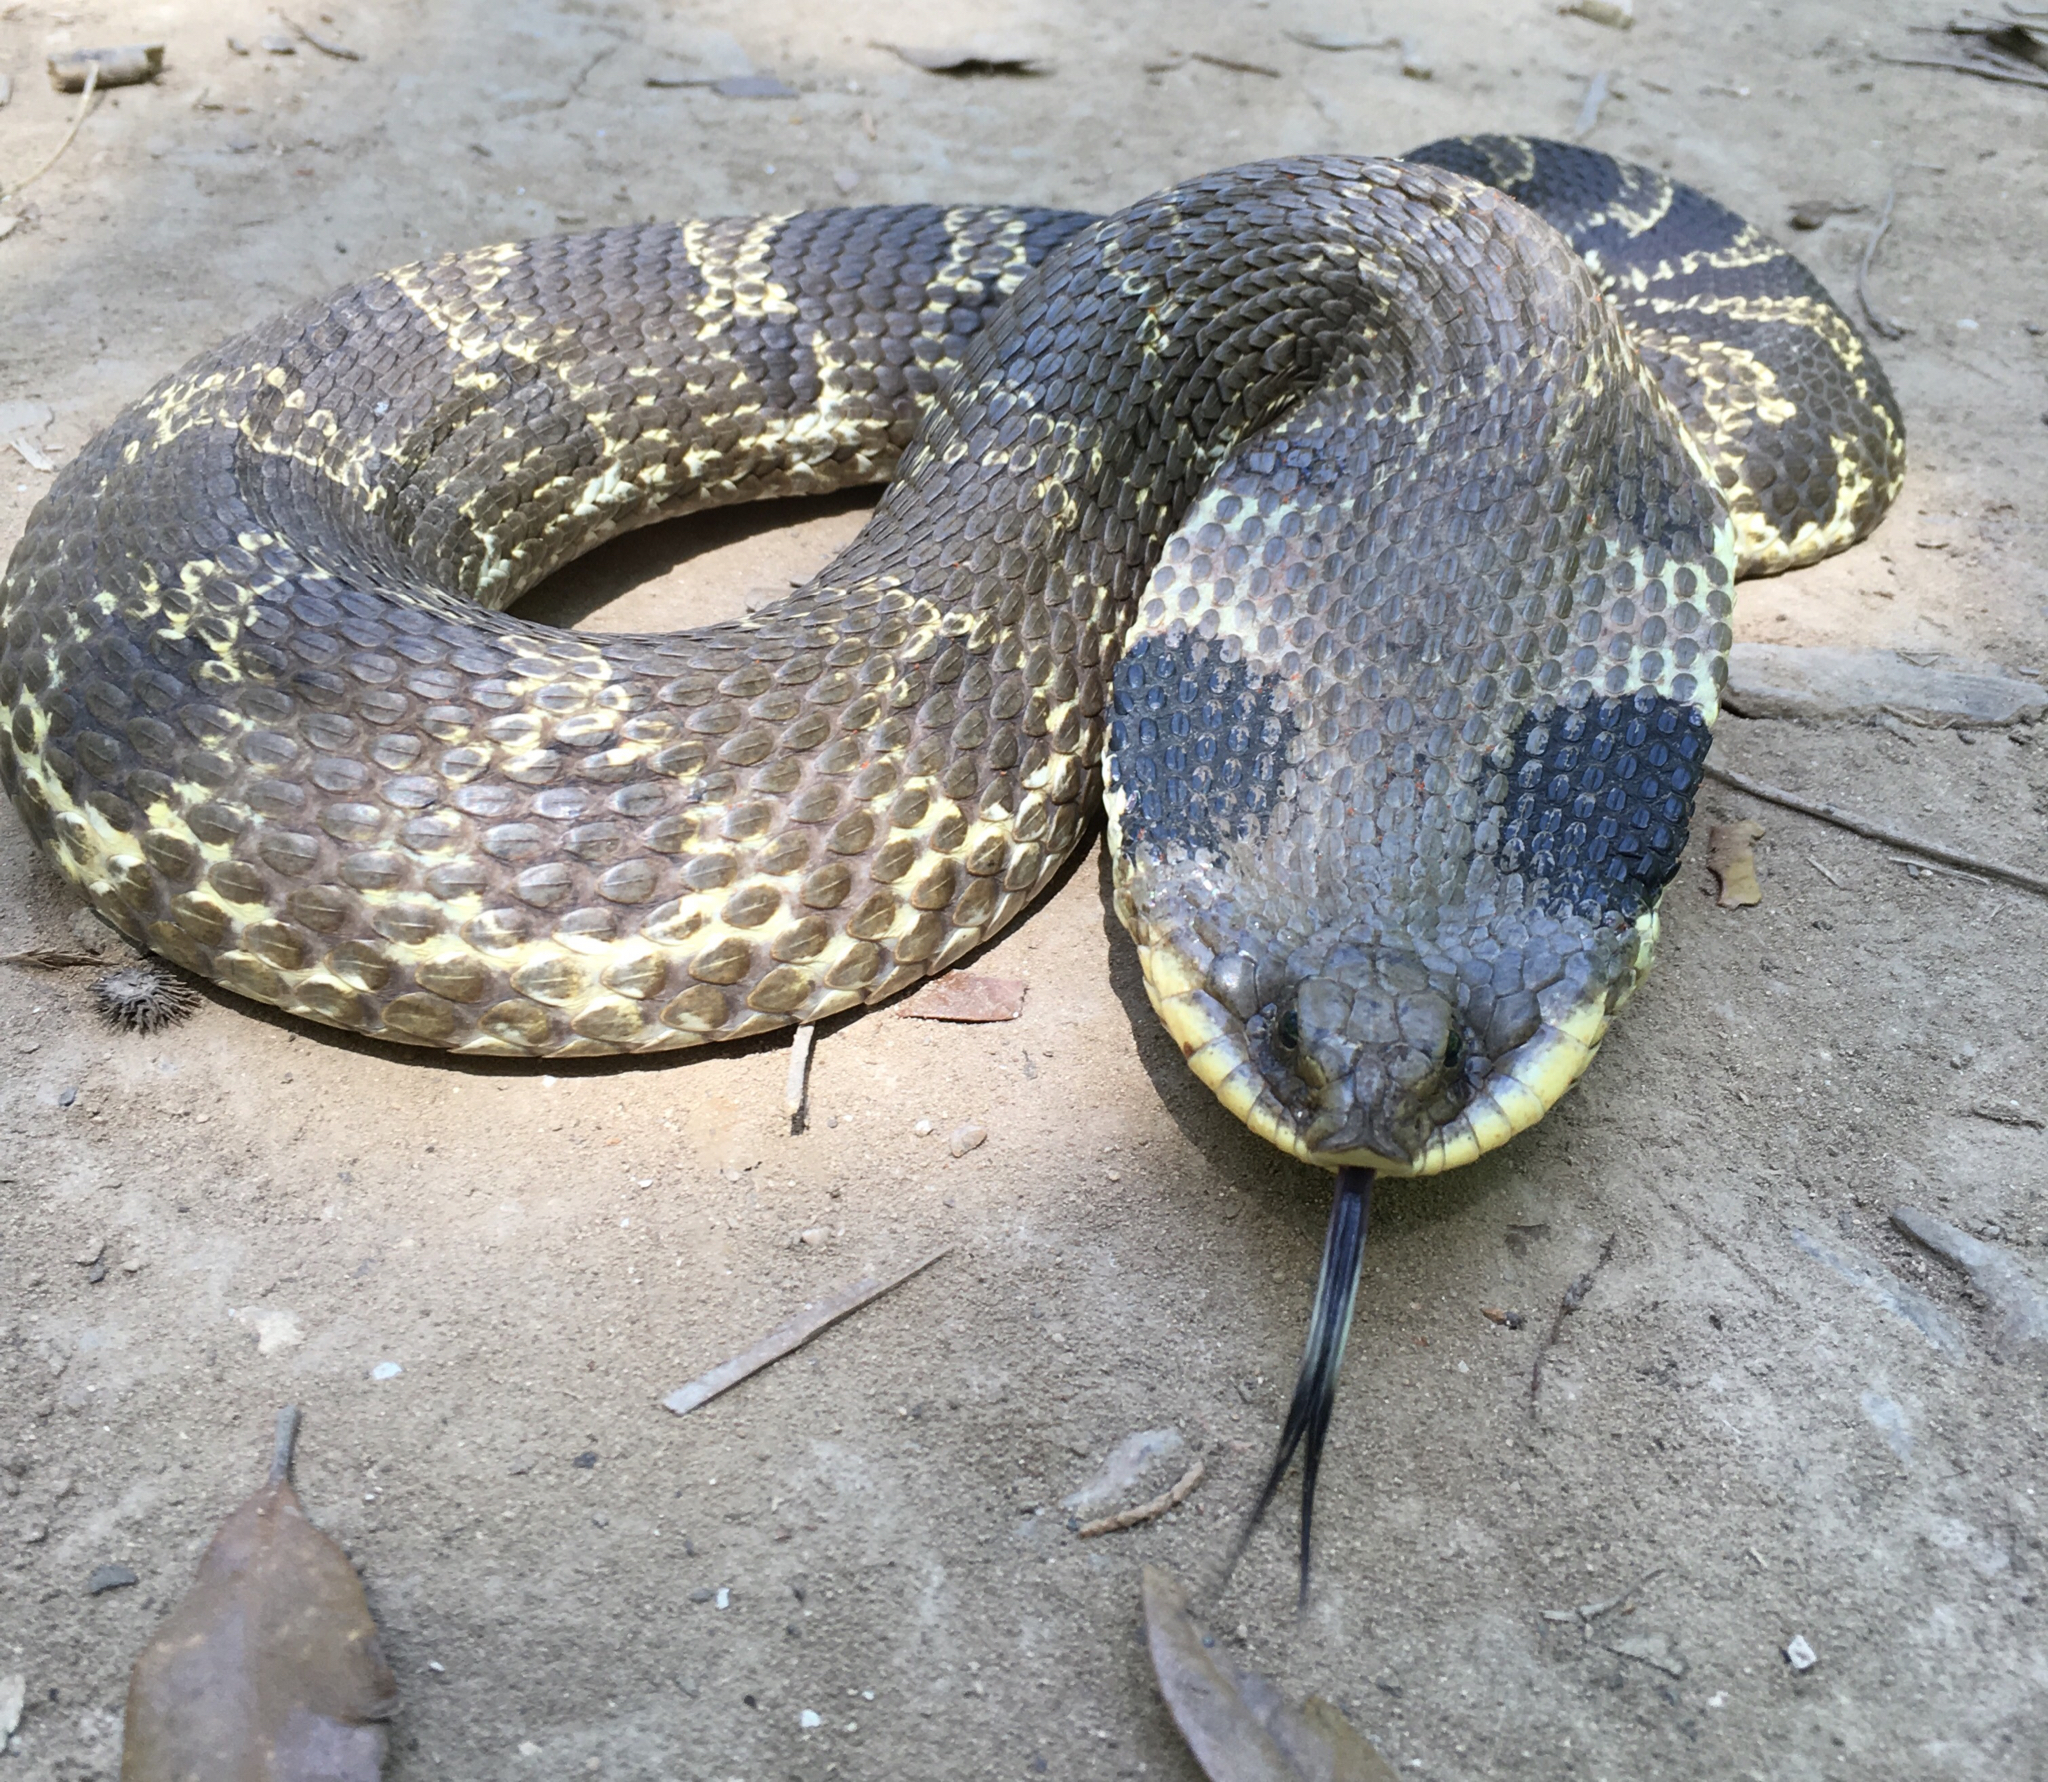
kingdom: Animalia
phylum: Chordata
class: Squamata
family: Colubridae
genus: Heterodon
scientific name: Heterodon platirhinos
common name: Eastern hognose snake
